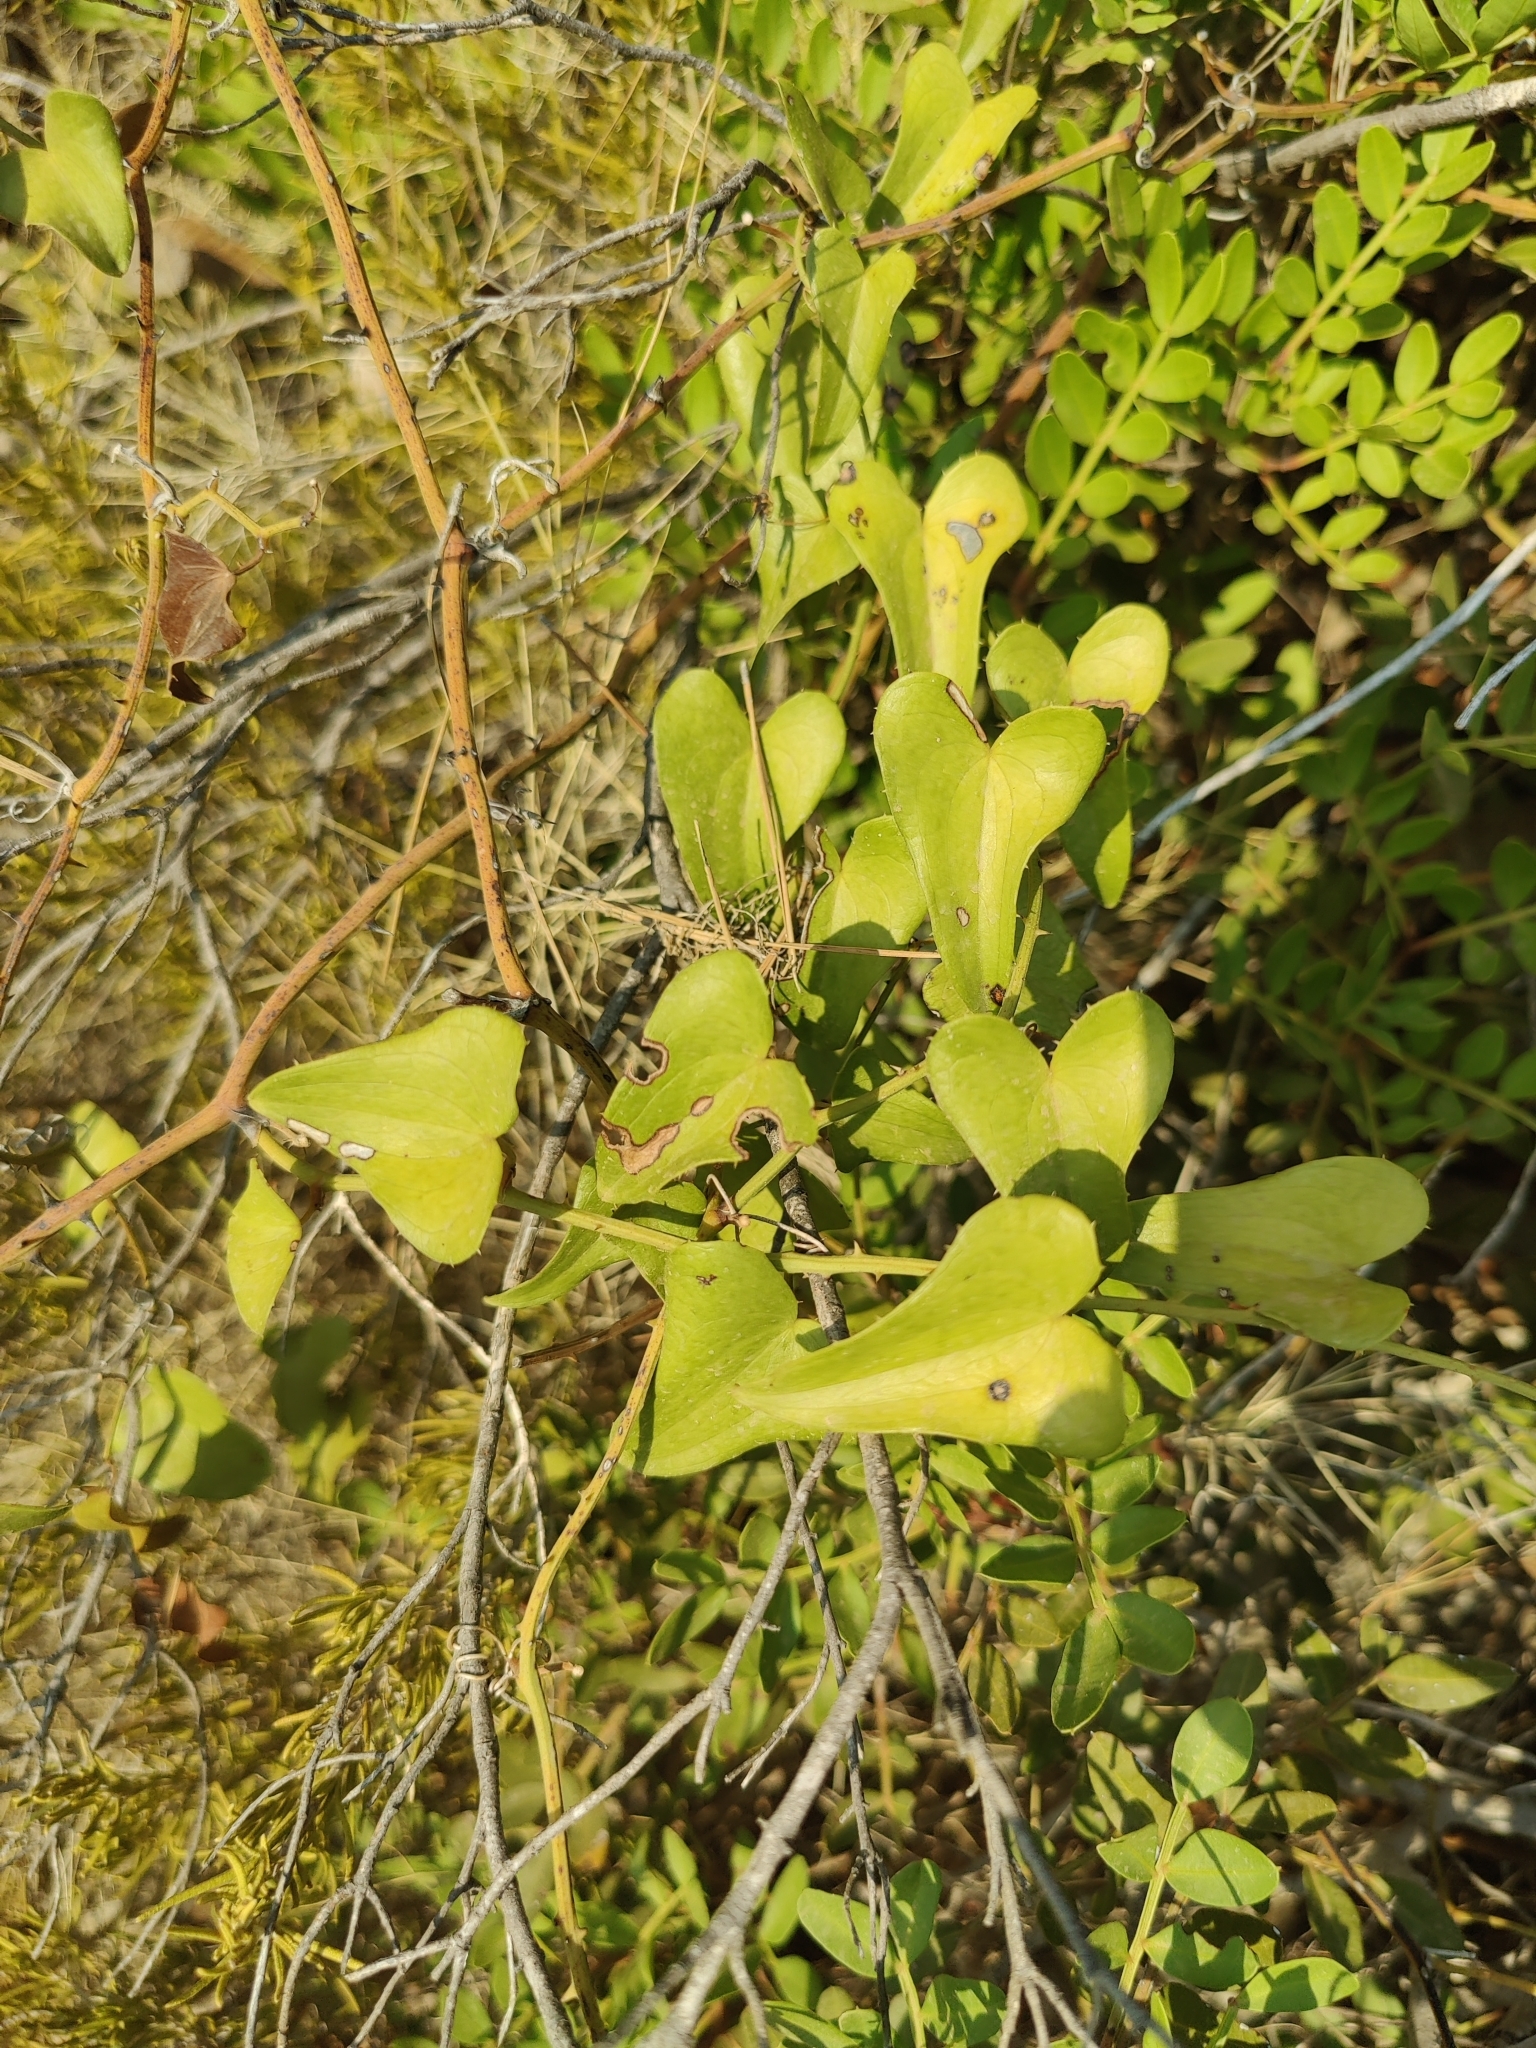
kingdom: Plantae
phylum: Tracheophyta
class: Liliopsida
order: Liliales
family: Smilacaceae
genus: Smilax
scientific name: Smilax aspera
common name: Common smilax
